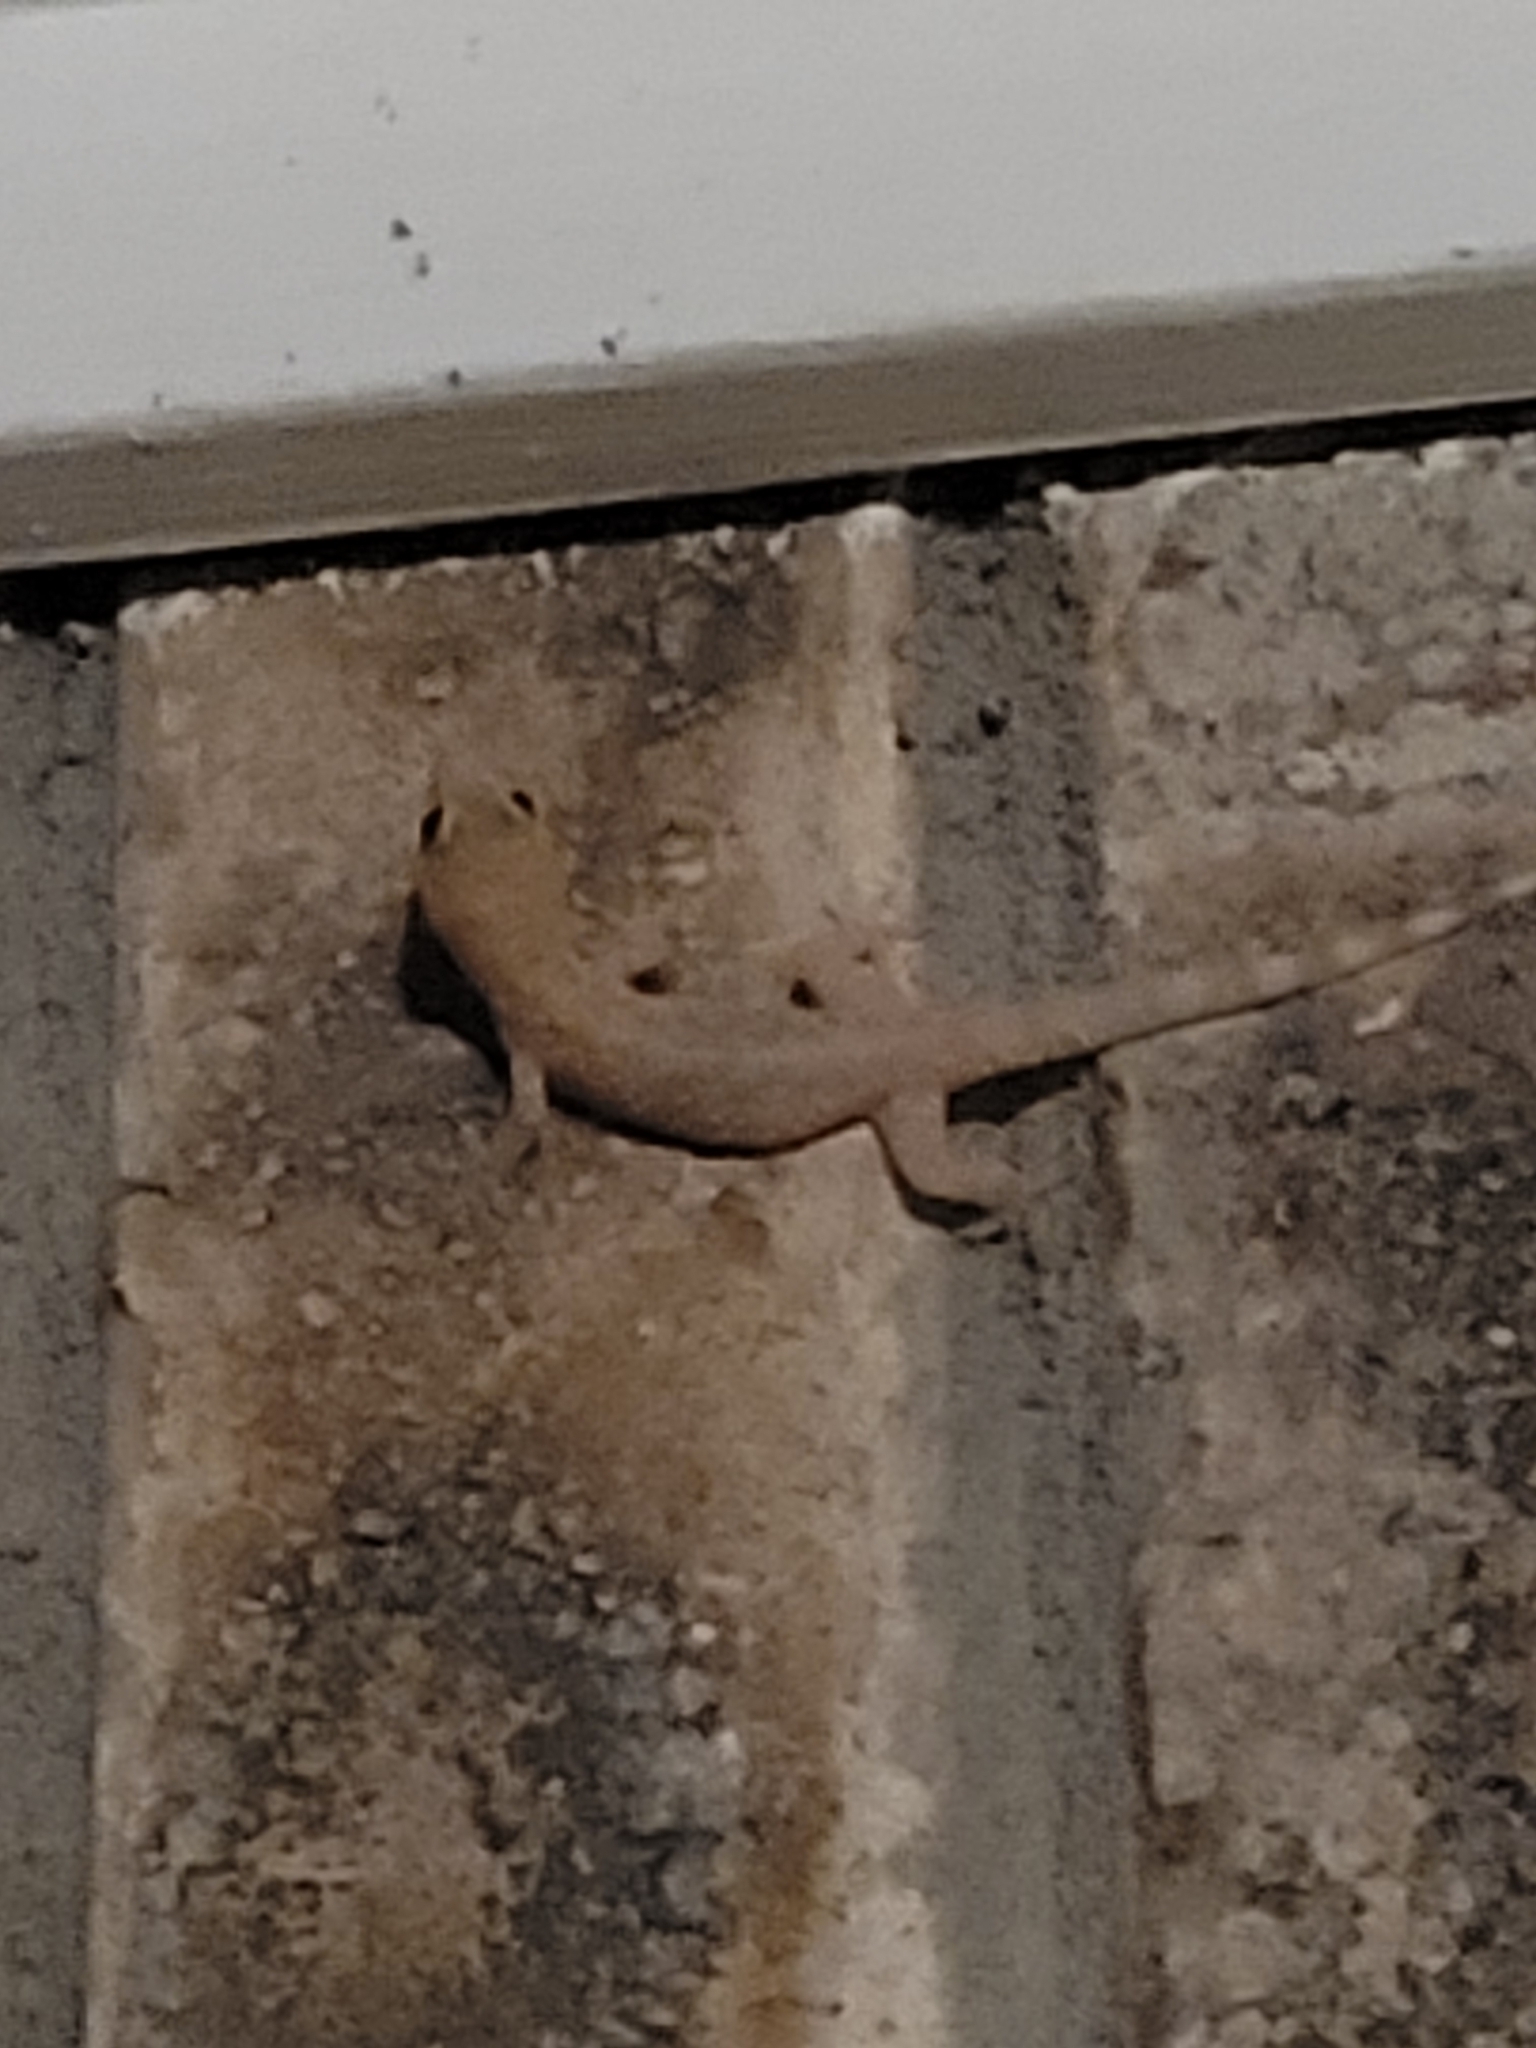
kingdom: Animalia
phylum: Chordata
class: Squamata
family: Gekkonidae
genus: Hemidactylus
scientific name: Hemidactylus turcicus
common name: Turkish gecko
